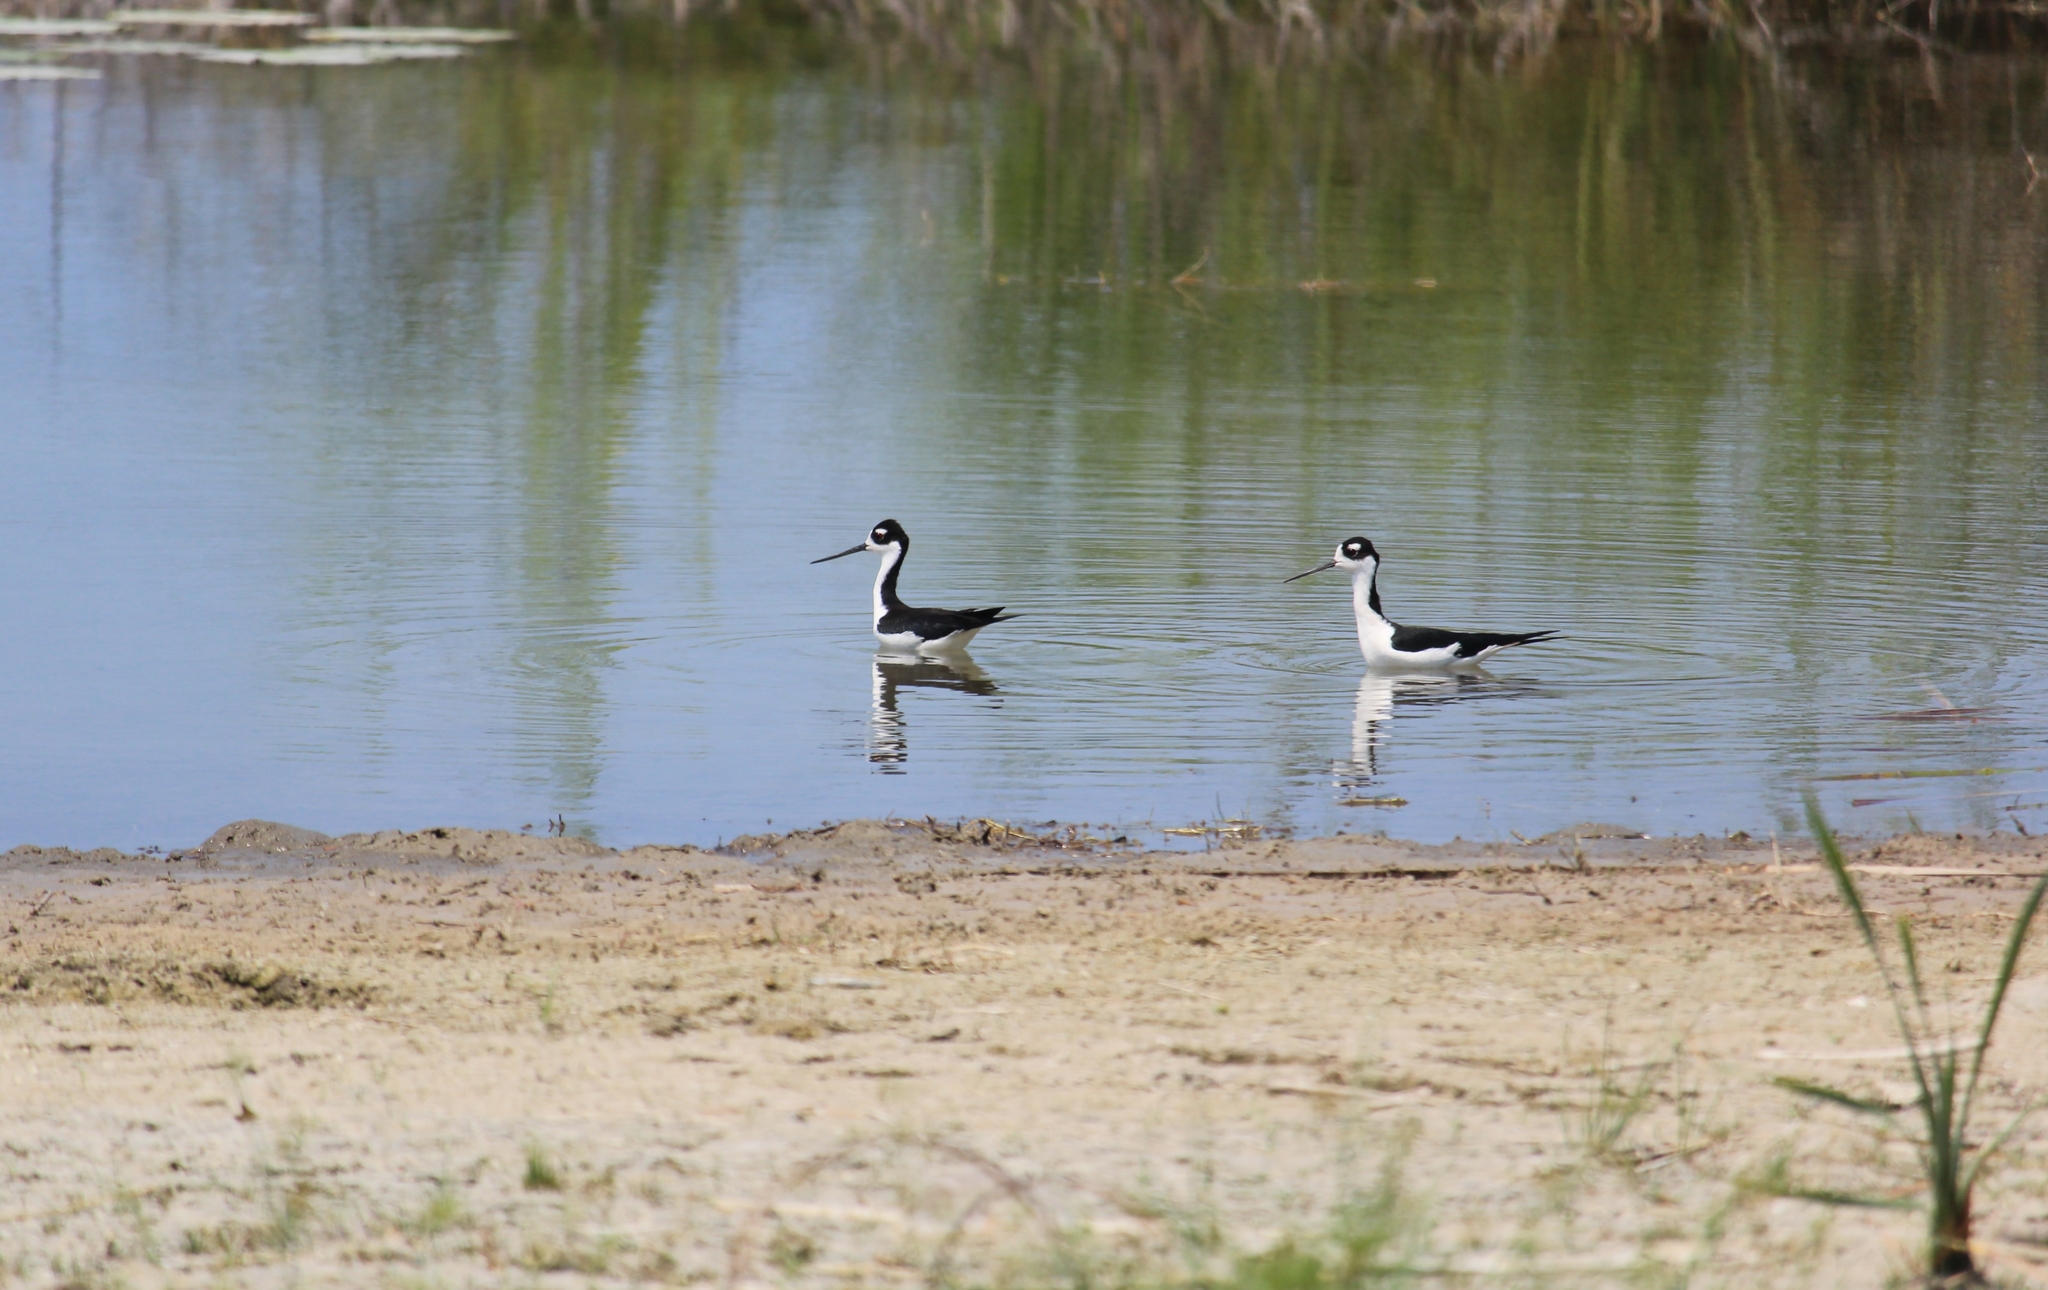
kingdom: Animalia
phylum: Chordata
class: Aves
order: Charadriiformes
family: Recurvirostridae
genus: Himantopus
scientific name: Himantopus mexicanus
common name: Black-necked stilt
